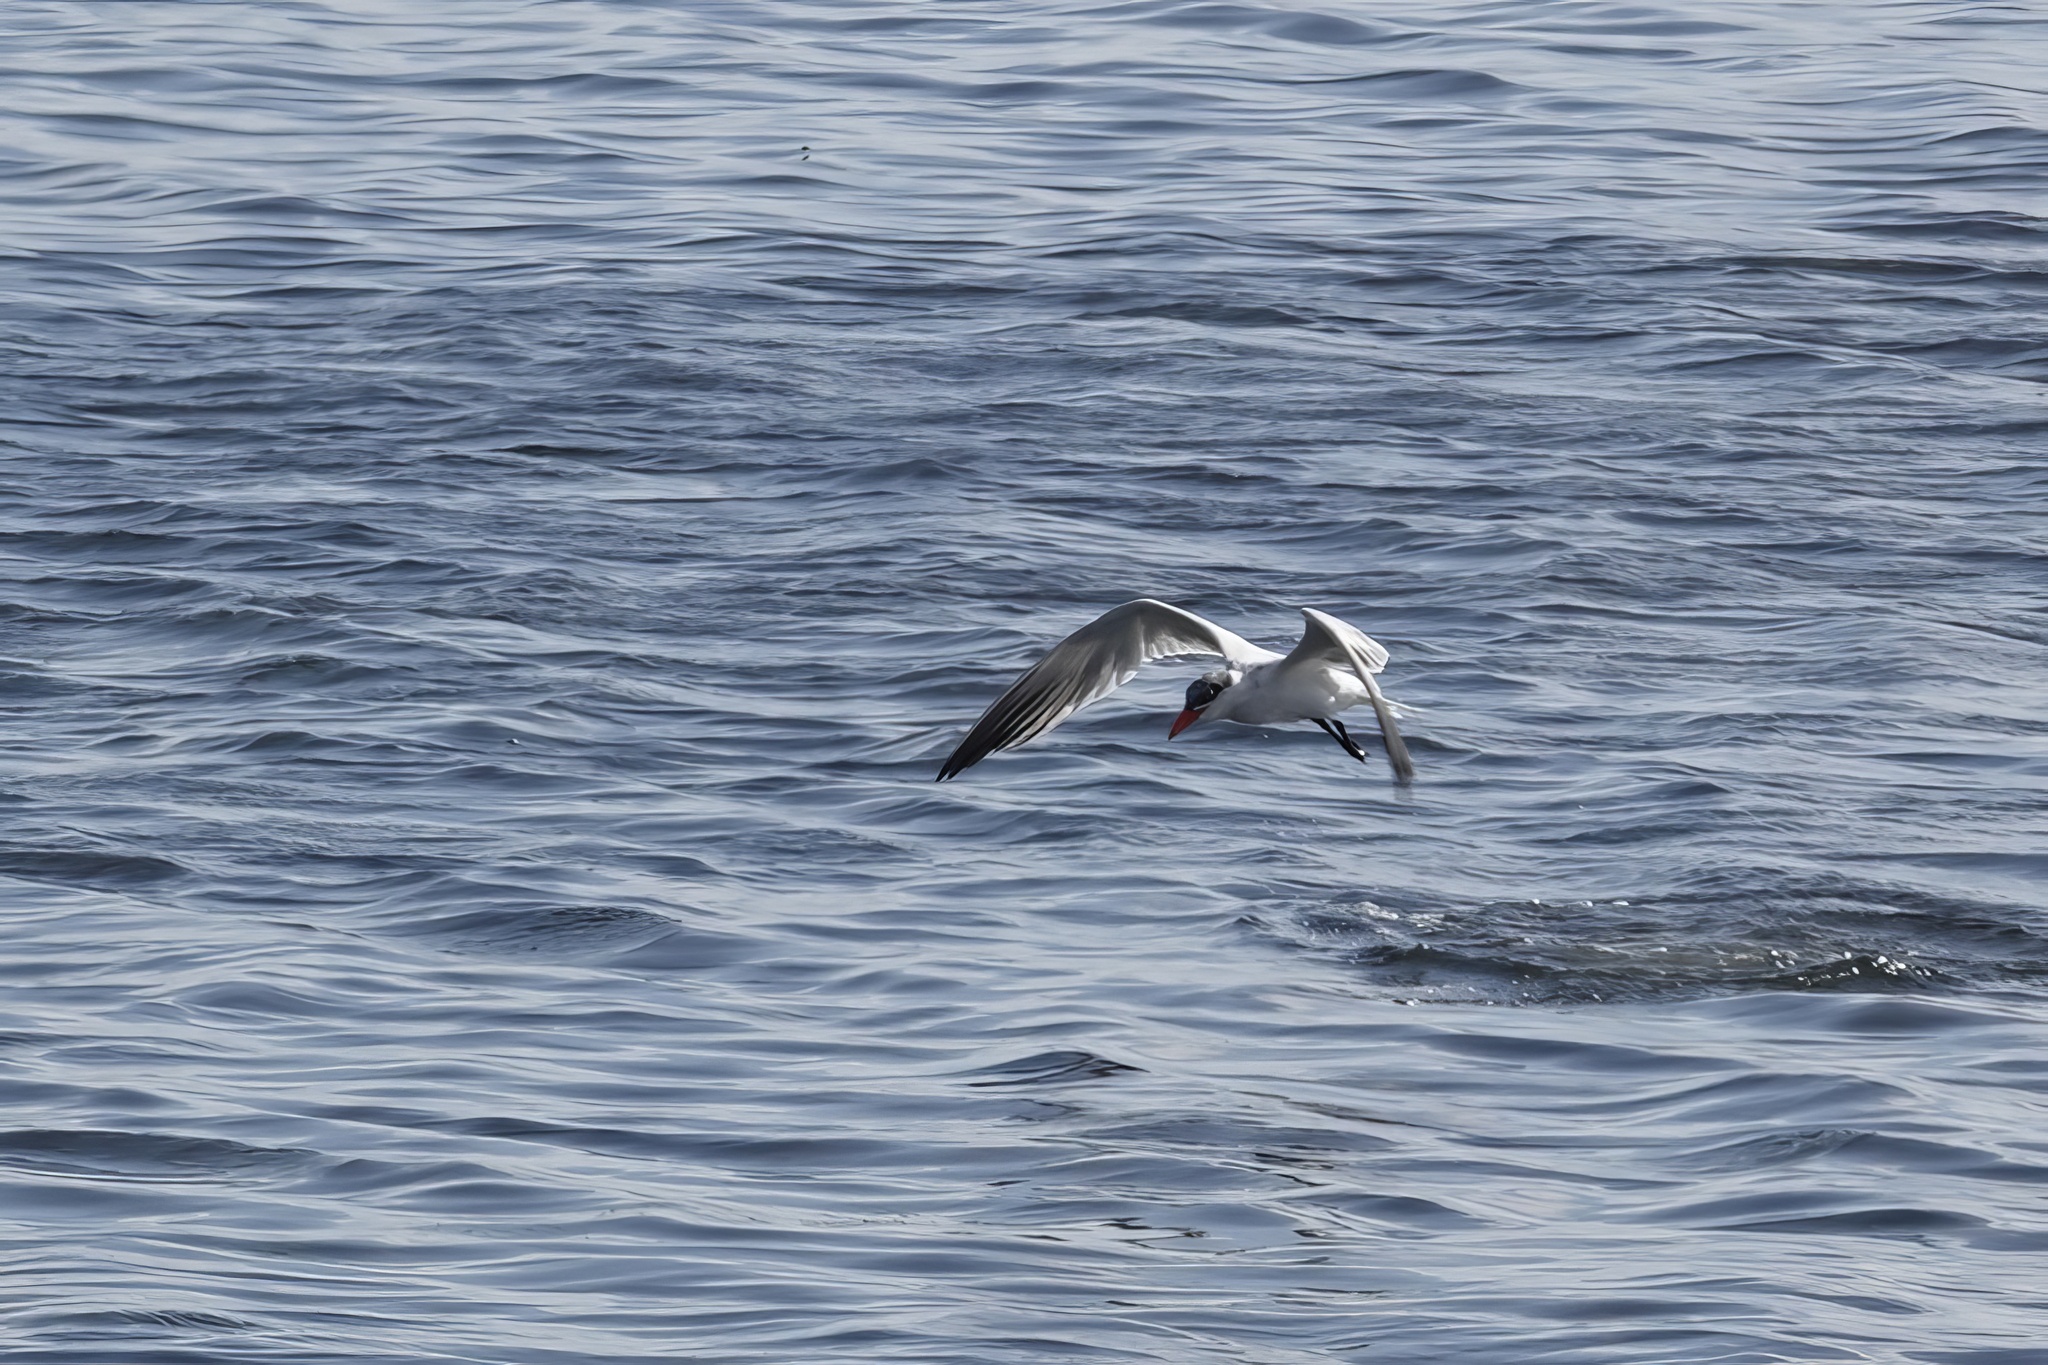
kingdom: Animalia
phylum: Chordata
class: Aves
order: Charadriiformes
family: Laridae
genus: Hydroprogne
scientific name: Hydroprogne caspia
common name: Caspian tern
